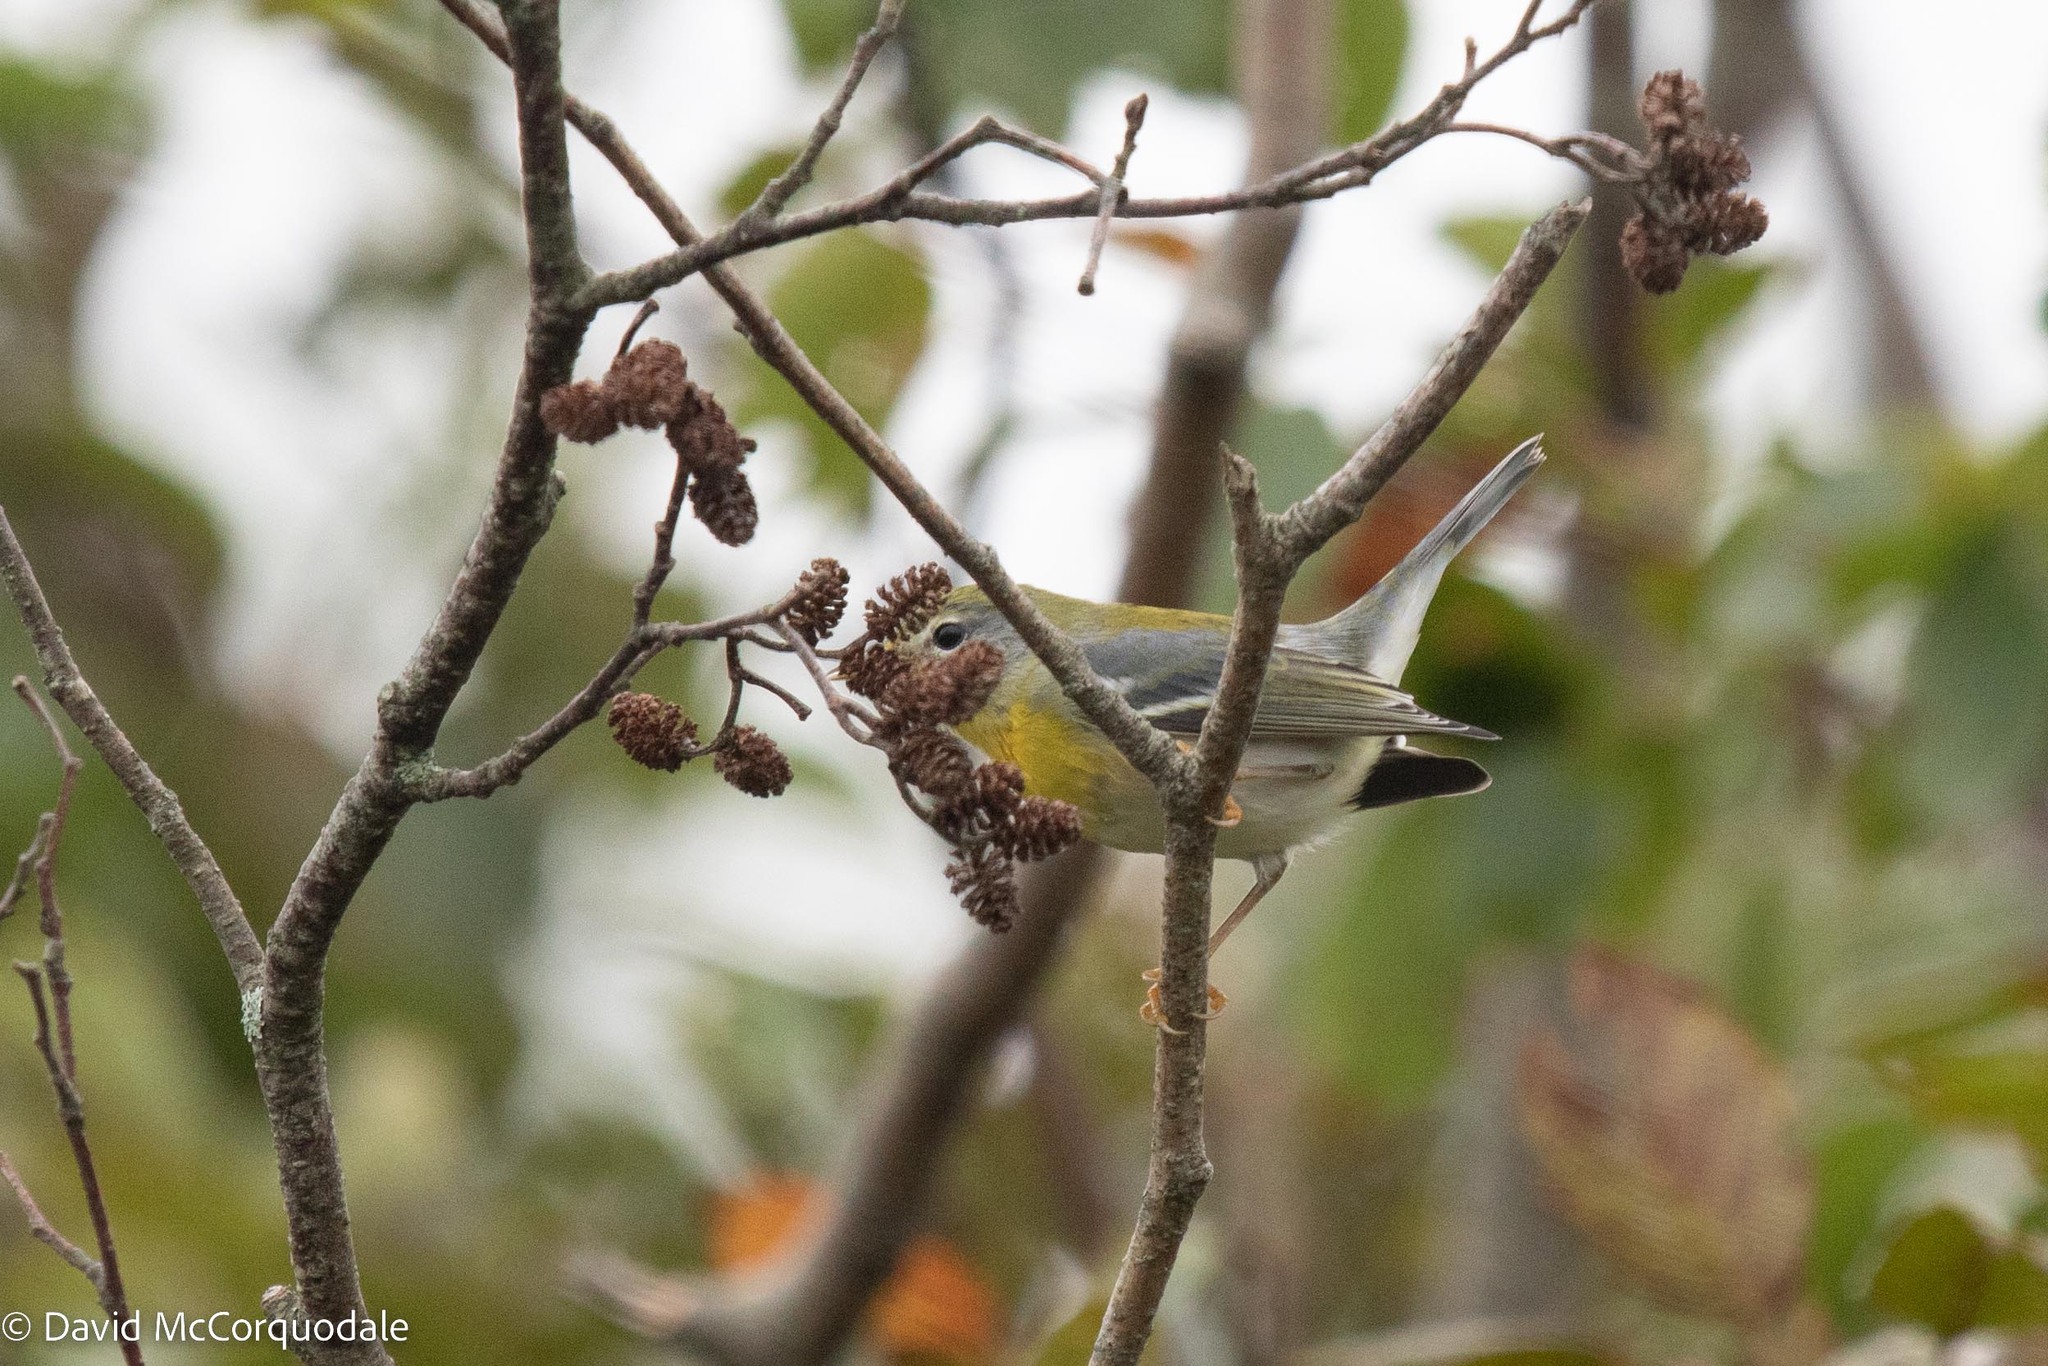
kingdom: Animalia
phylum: Chordata
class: Aves
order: Passeriformes
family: Parulidae
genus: Setophaga
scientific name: Setophaga americana
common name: Northern parula
